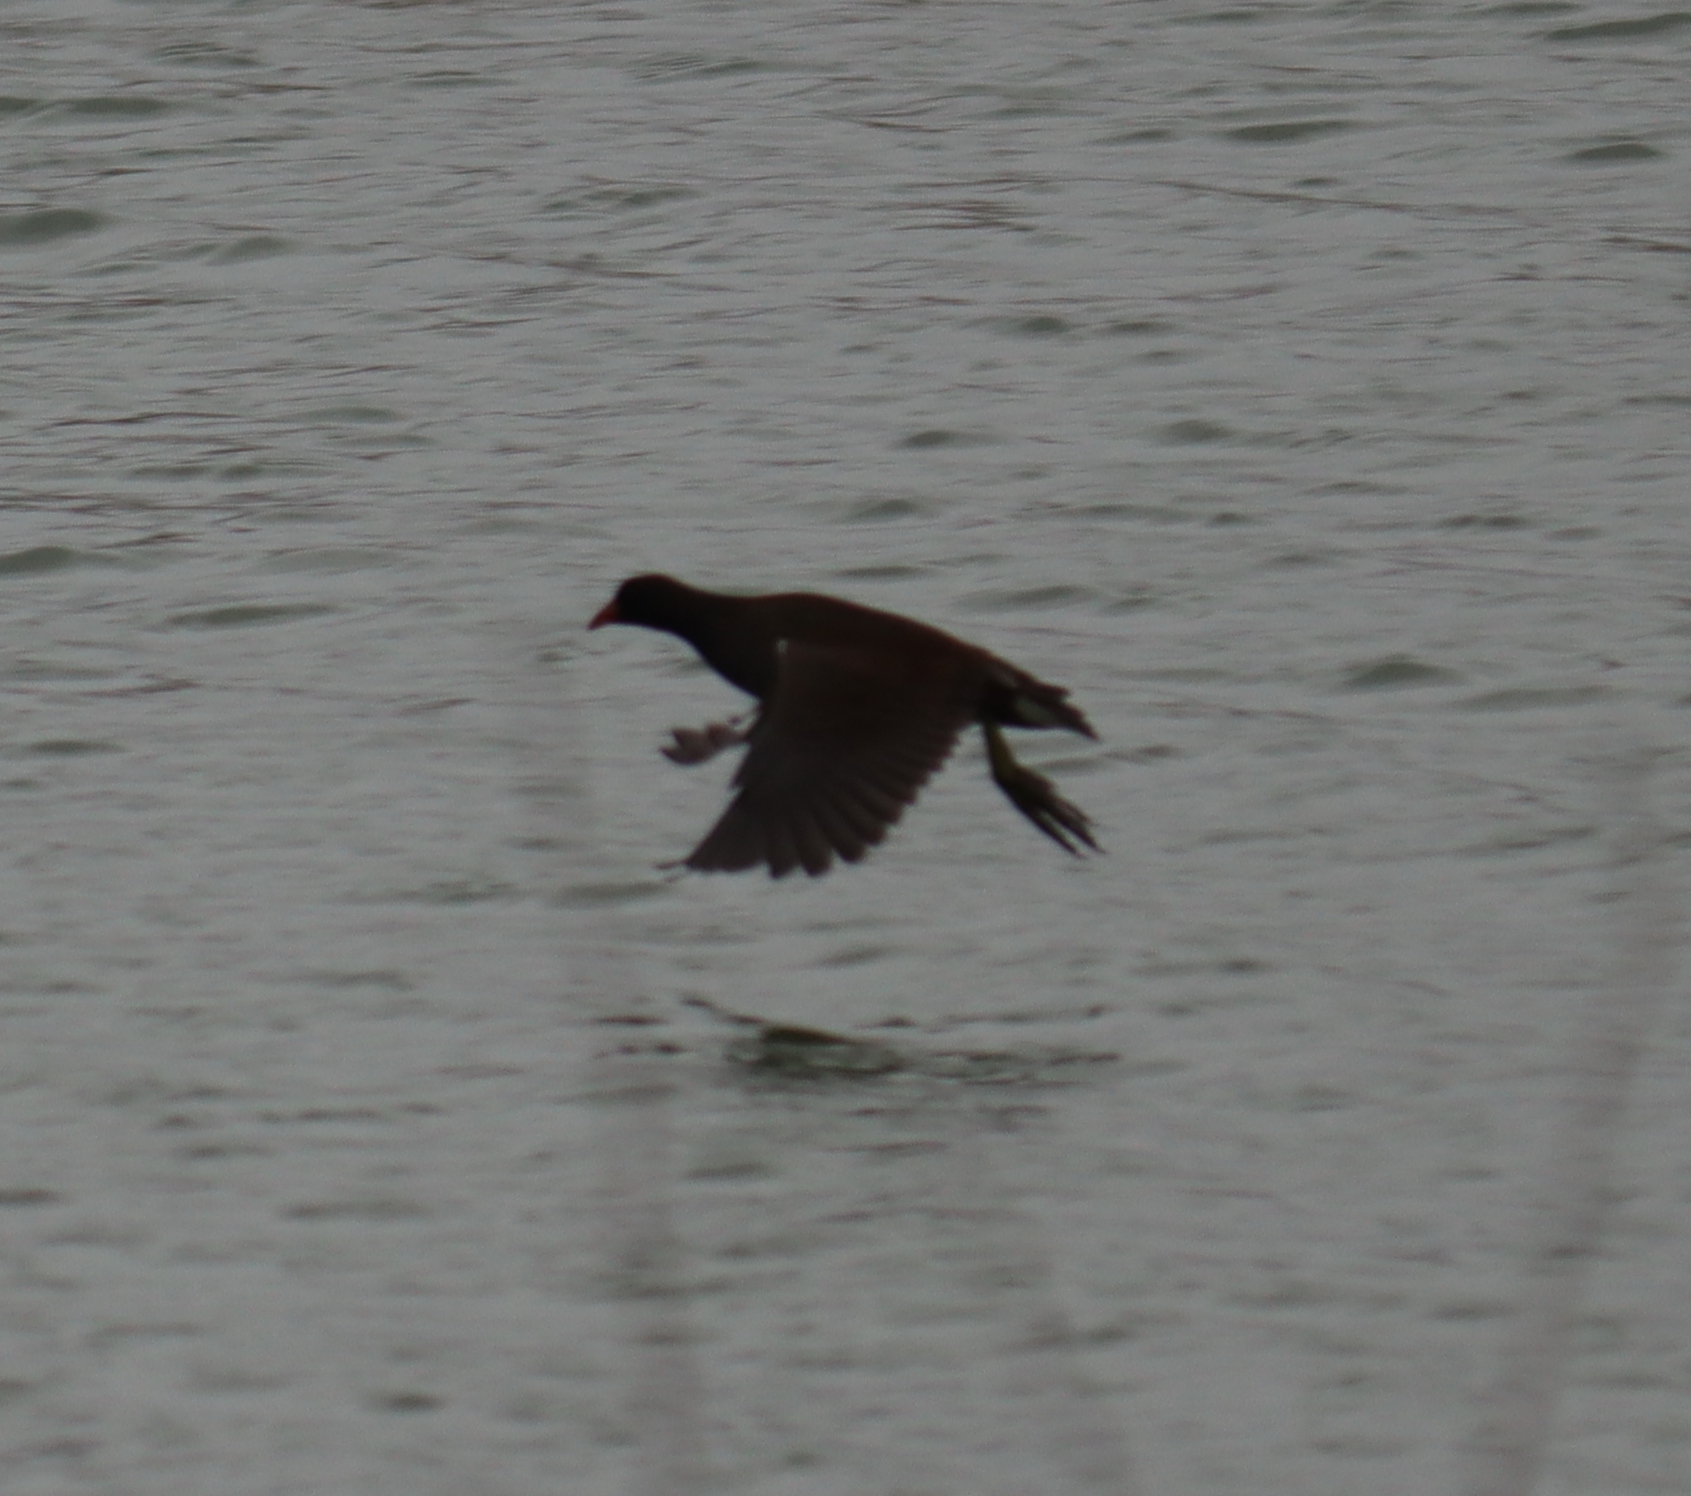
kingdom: Animalia
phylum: Chordata
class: Aves
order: Gruiformes
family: Rallidae
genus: Gallinula
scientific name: Gallinula chloropus
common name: Common moorhen
